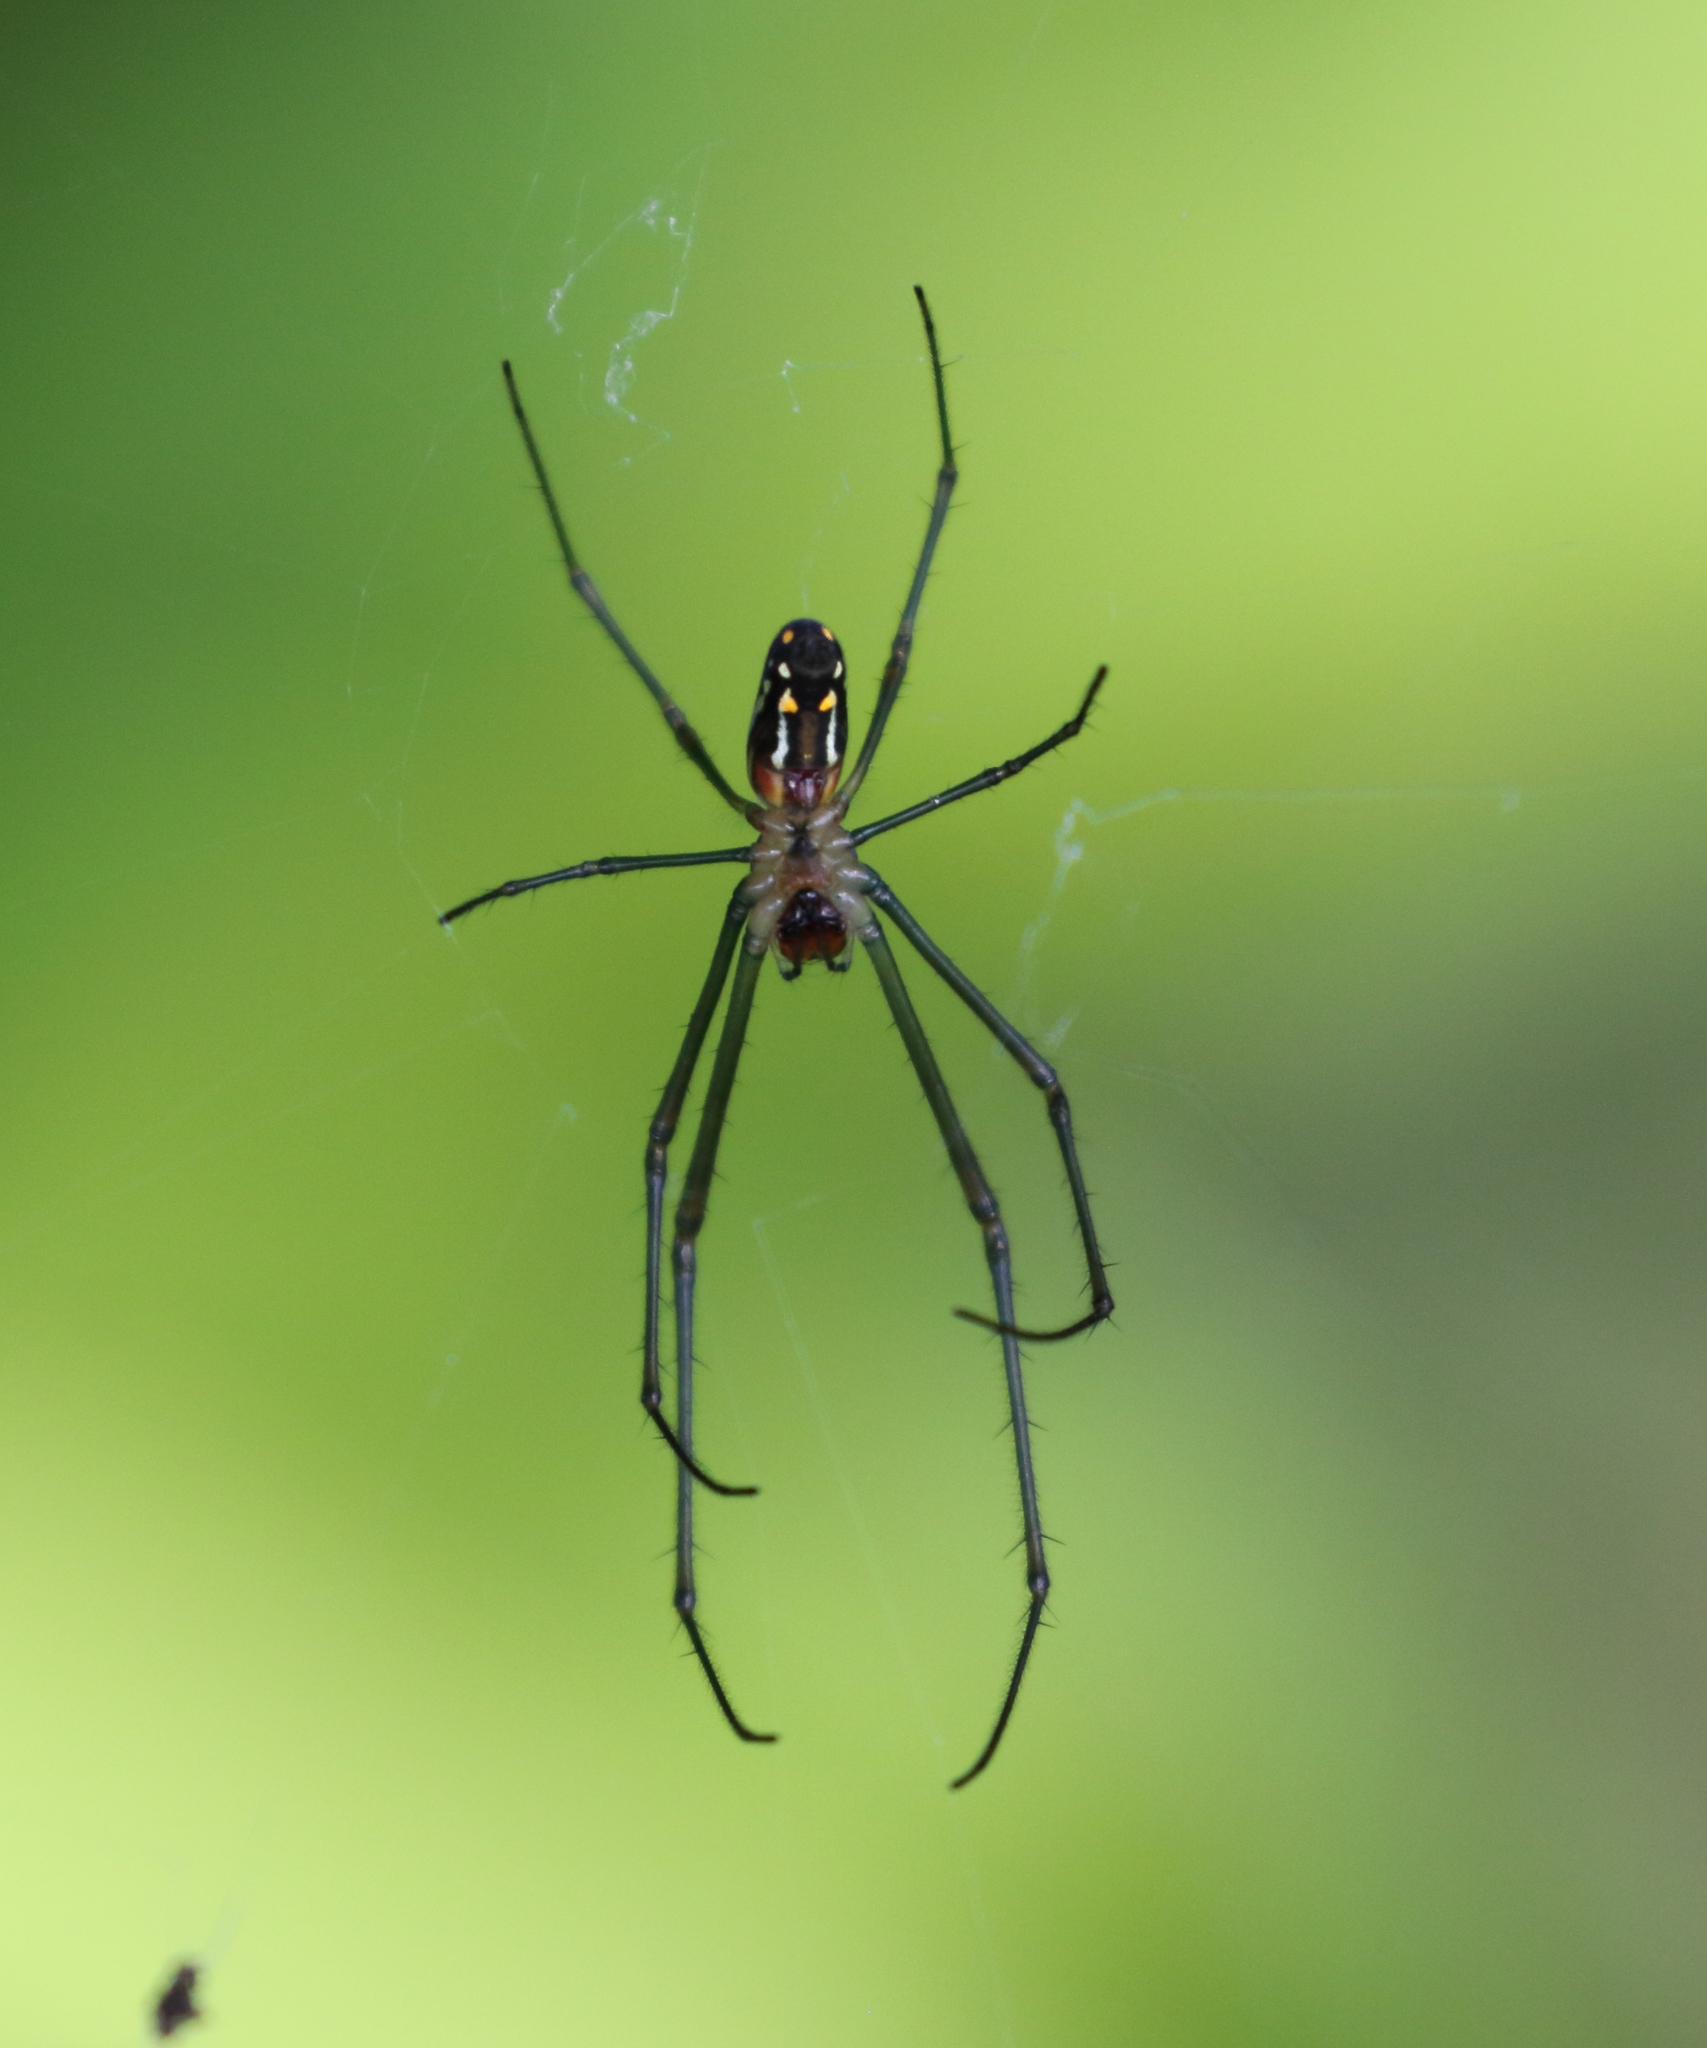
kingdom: Animalia
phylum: Arthropoda
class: Arachnida
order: Araneae
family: Tetragnathidae
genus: Leucauge
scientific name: Leucauge argyra
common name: Longjawed orb weavers
